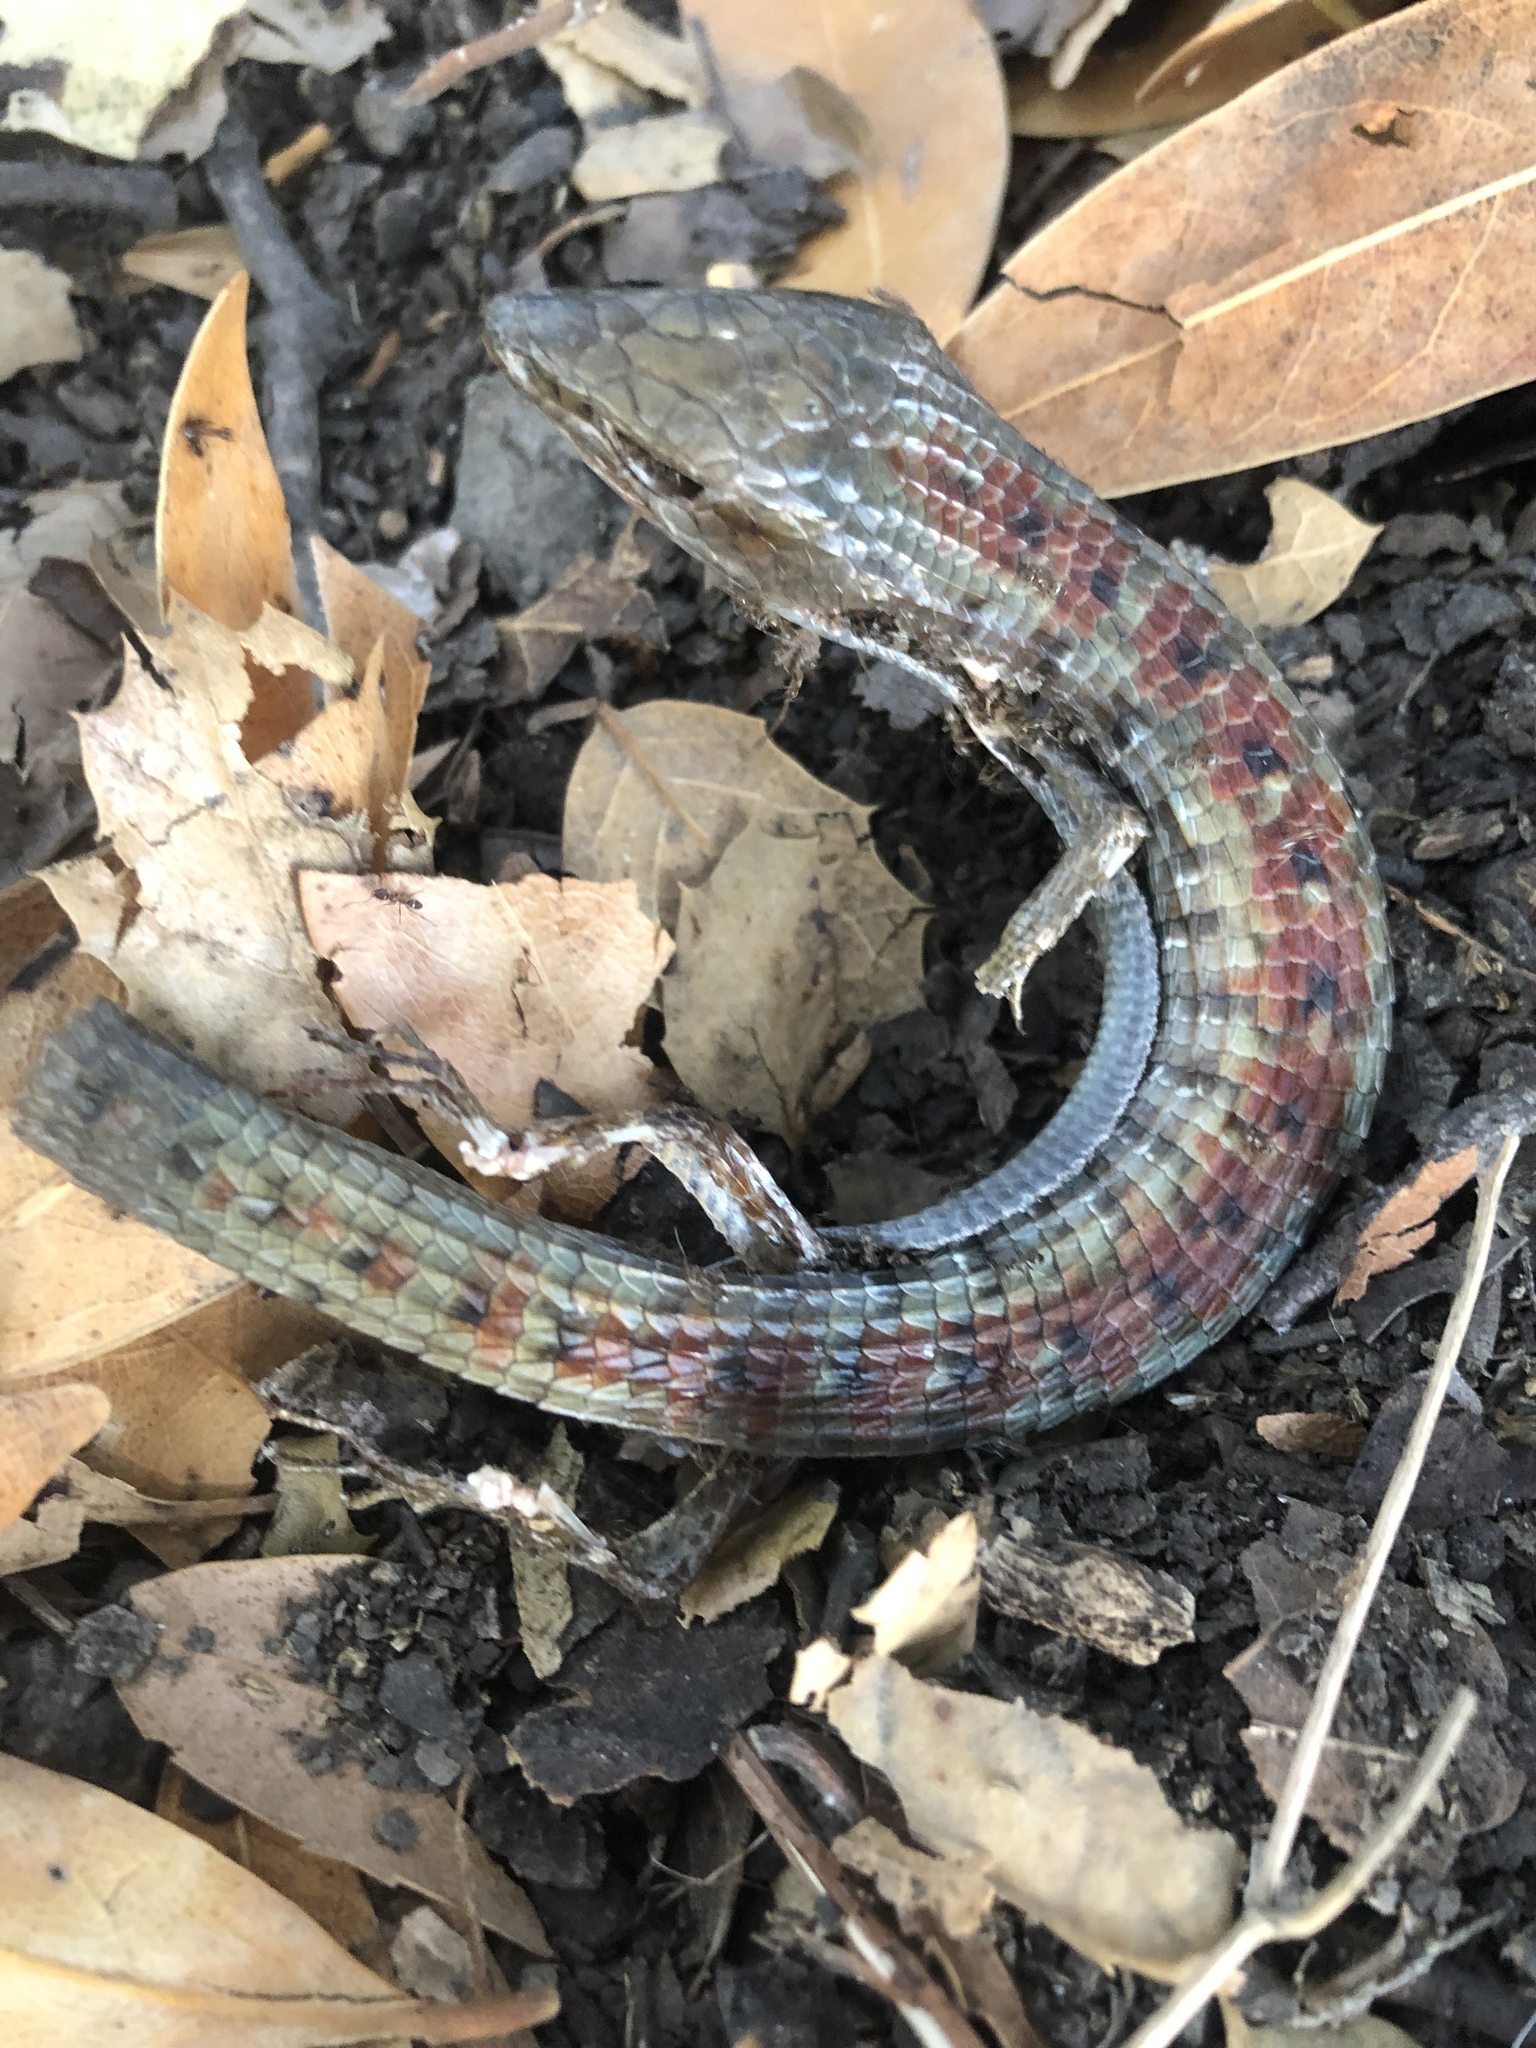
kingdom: Animalia
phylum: Chordata
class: Squamata
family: Anguidae
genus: Elgaria
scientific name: Elgaria multicarinata
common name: Southern alligator lizard
